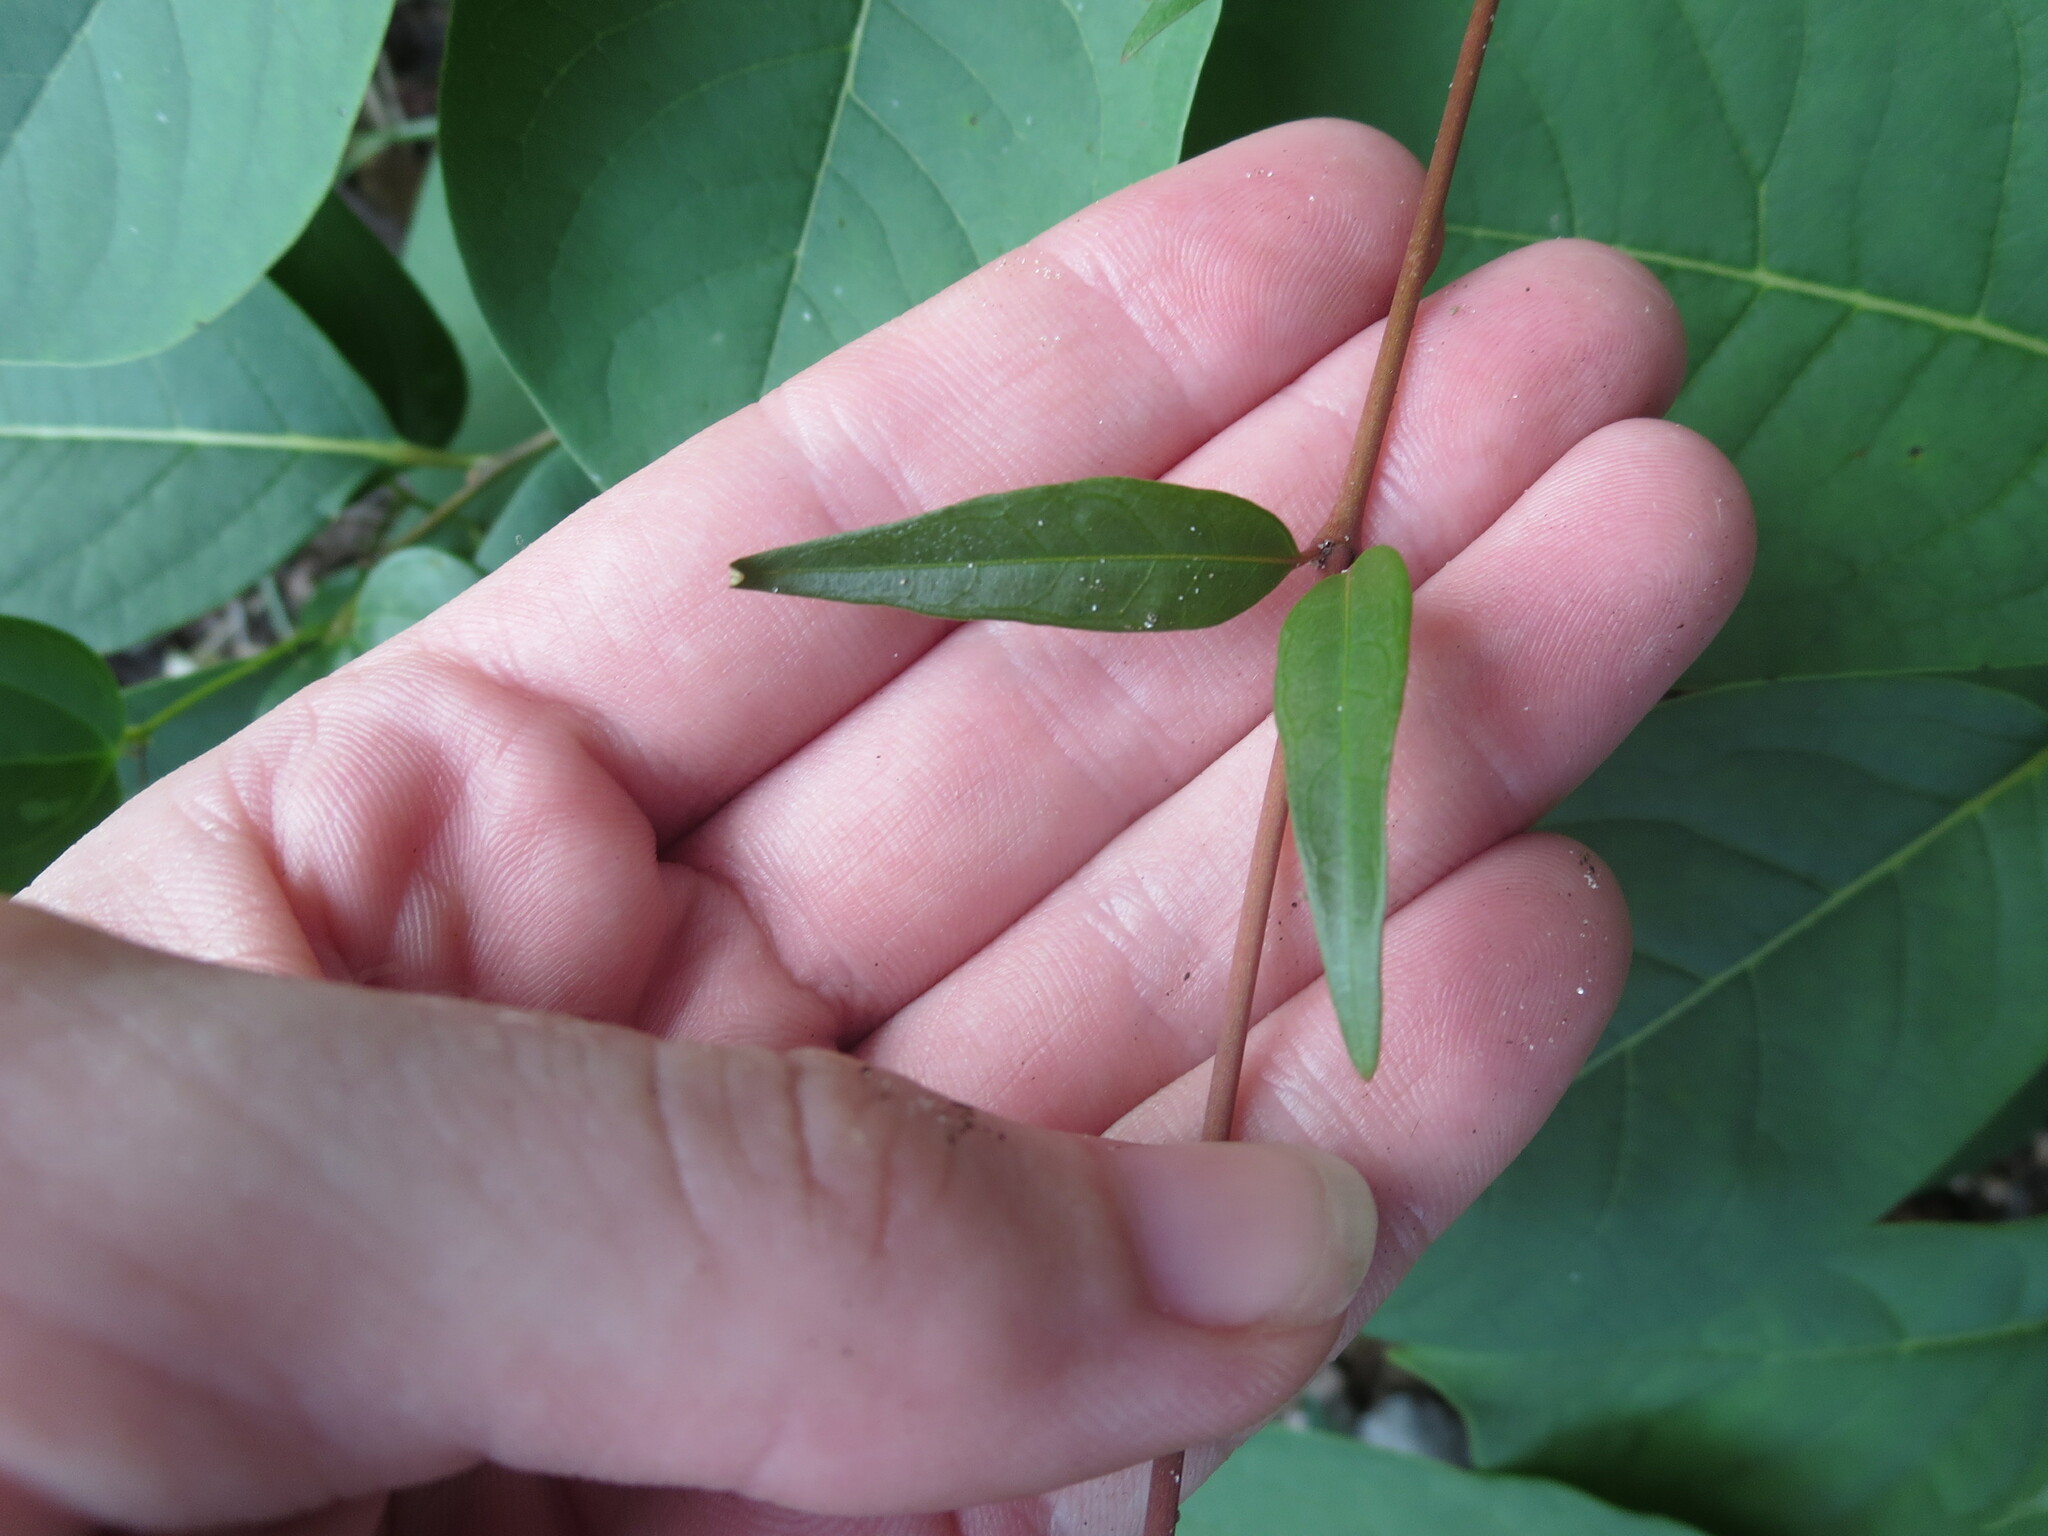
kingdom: Plantae
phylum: Tracheophyta
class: Magnoliopsida
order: Gentianales
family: Gelsemiaceae
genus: Gelsemium
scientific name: Gelsemium sempervirens
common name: Carolina-jasmine
